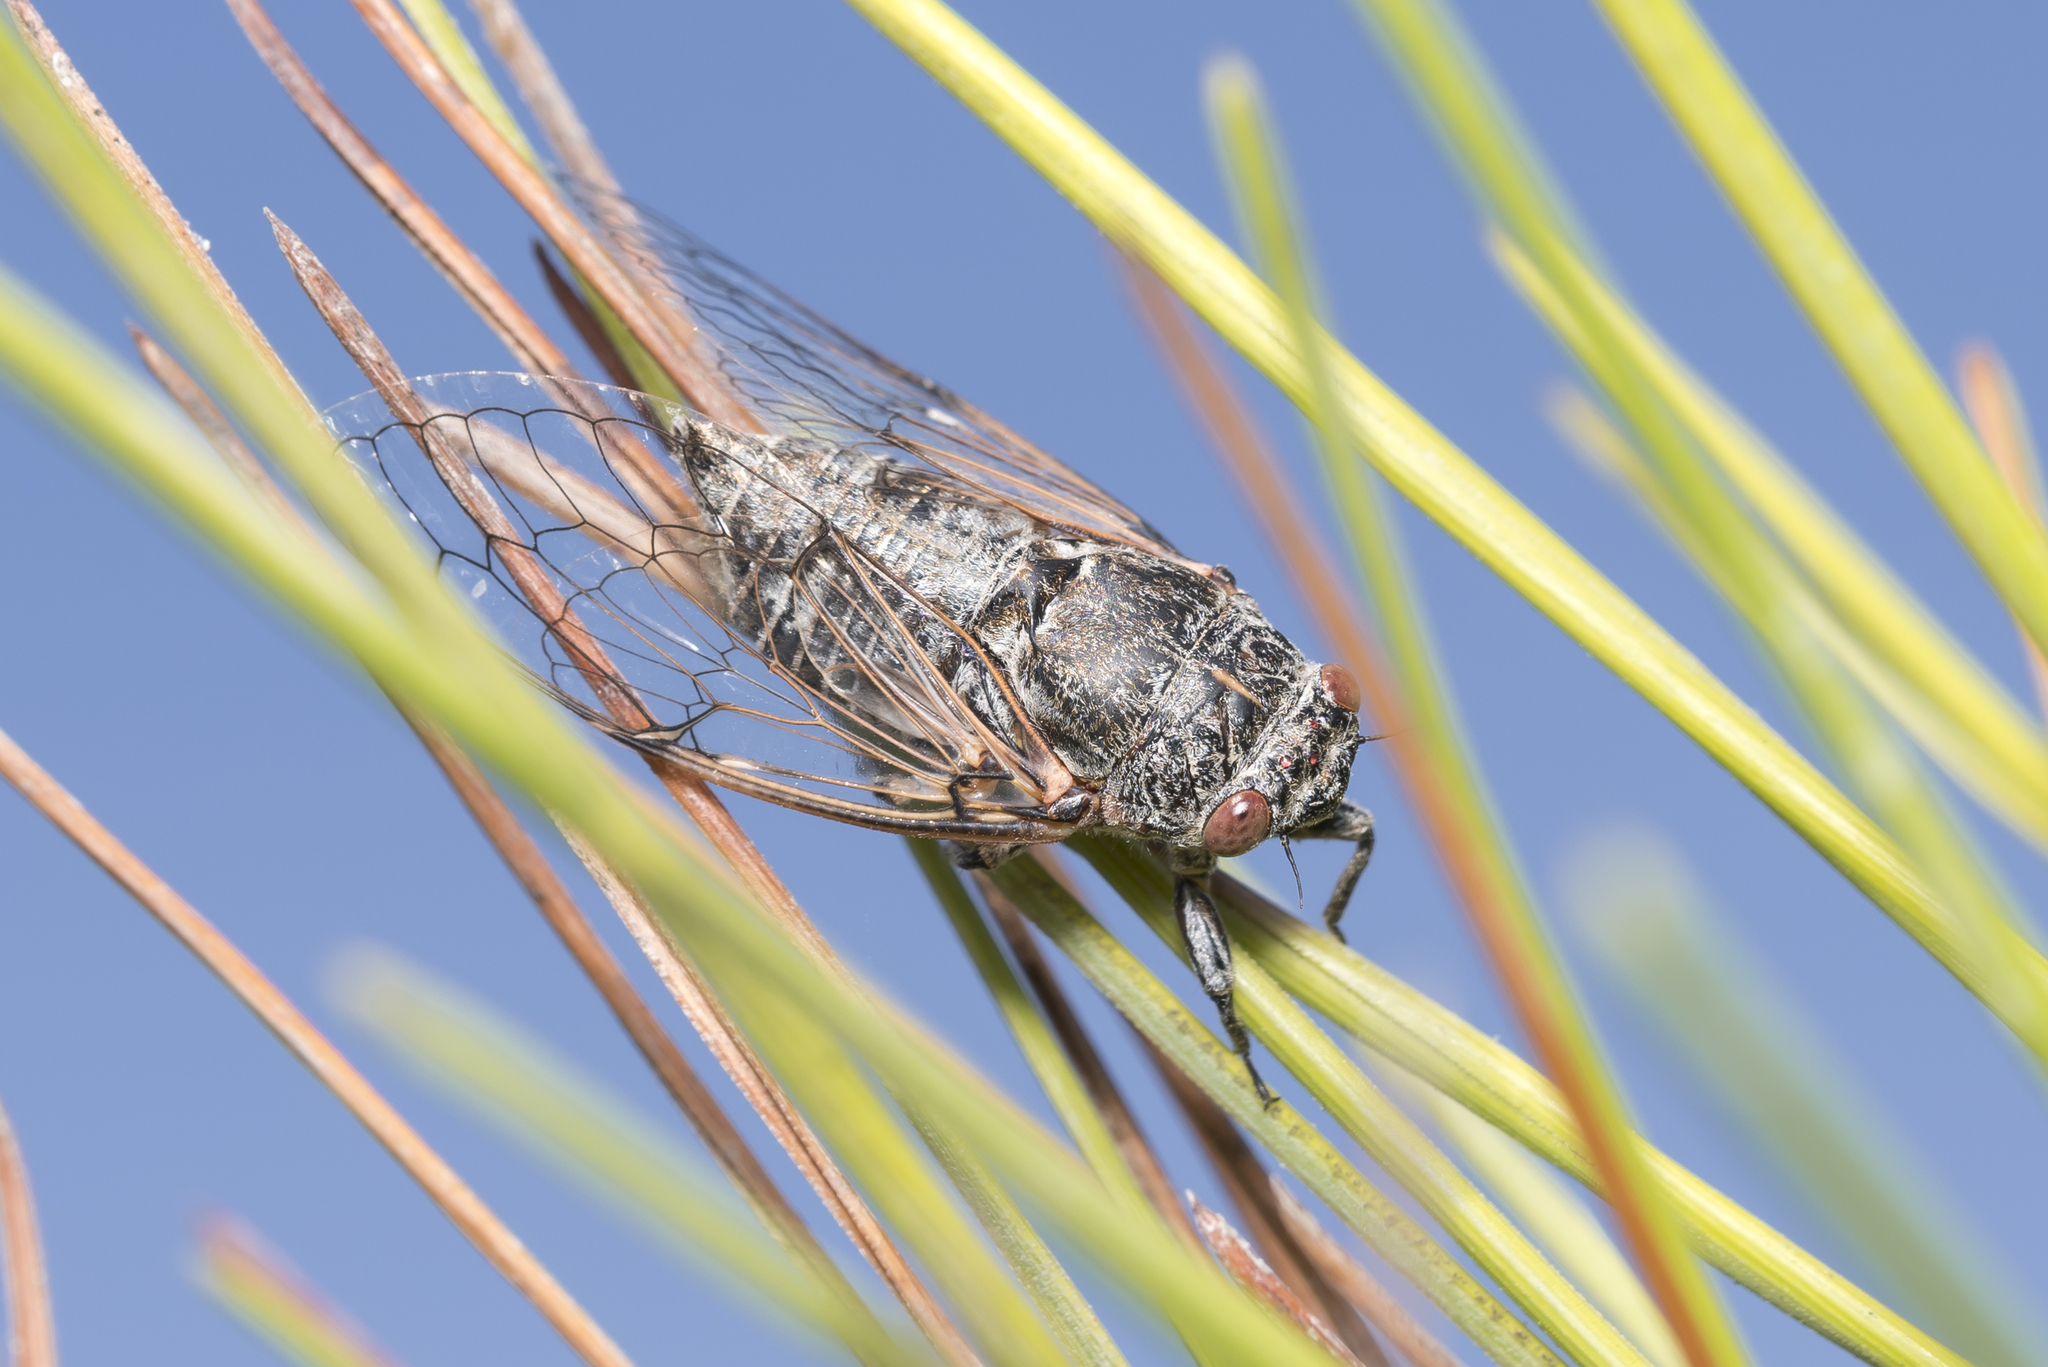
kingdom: Animalia
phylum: Arthropoda
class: Insecta
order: Hemiptera
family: Cicadidae
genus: Cicadatra
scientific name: Cicadatra atra
